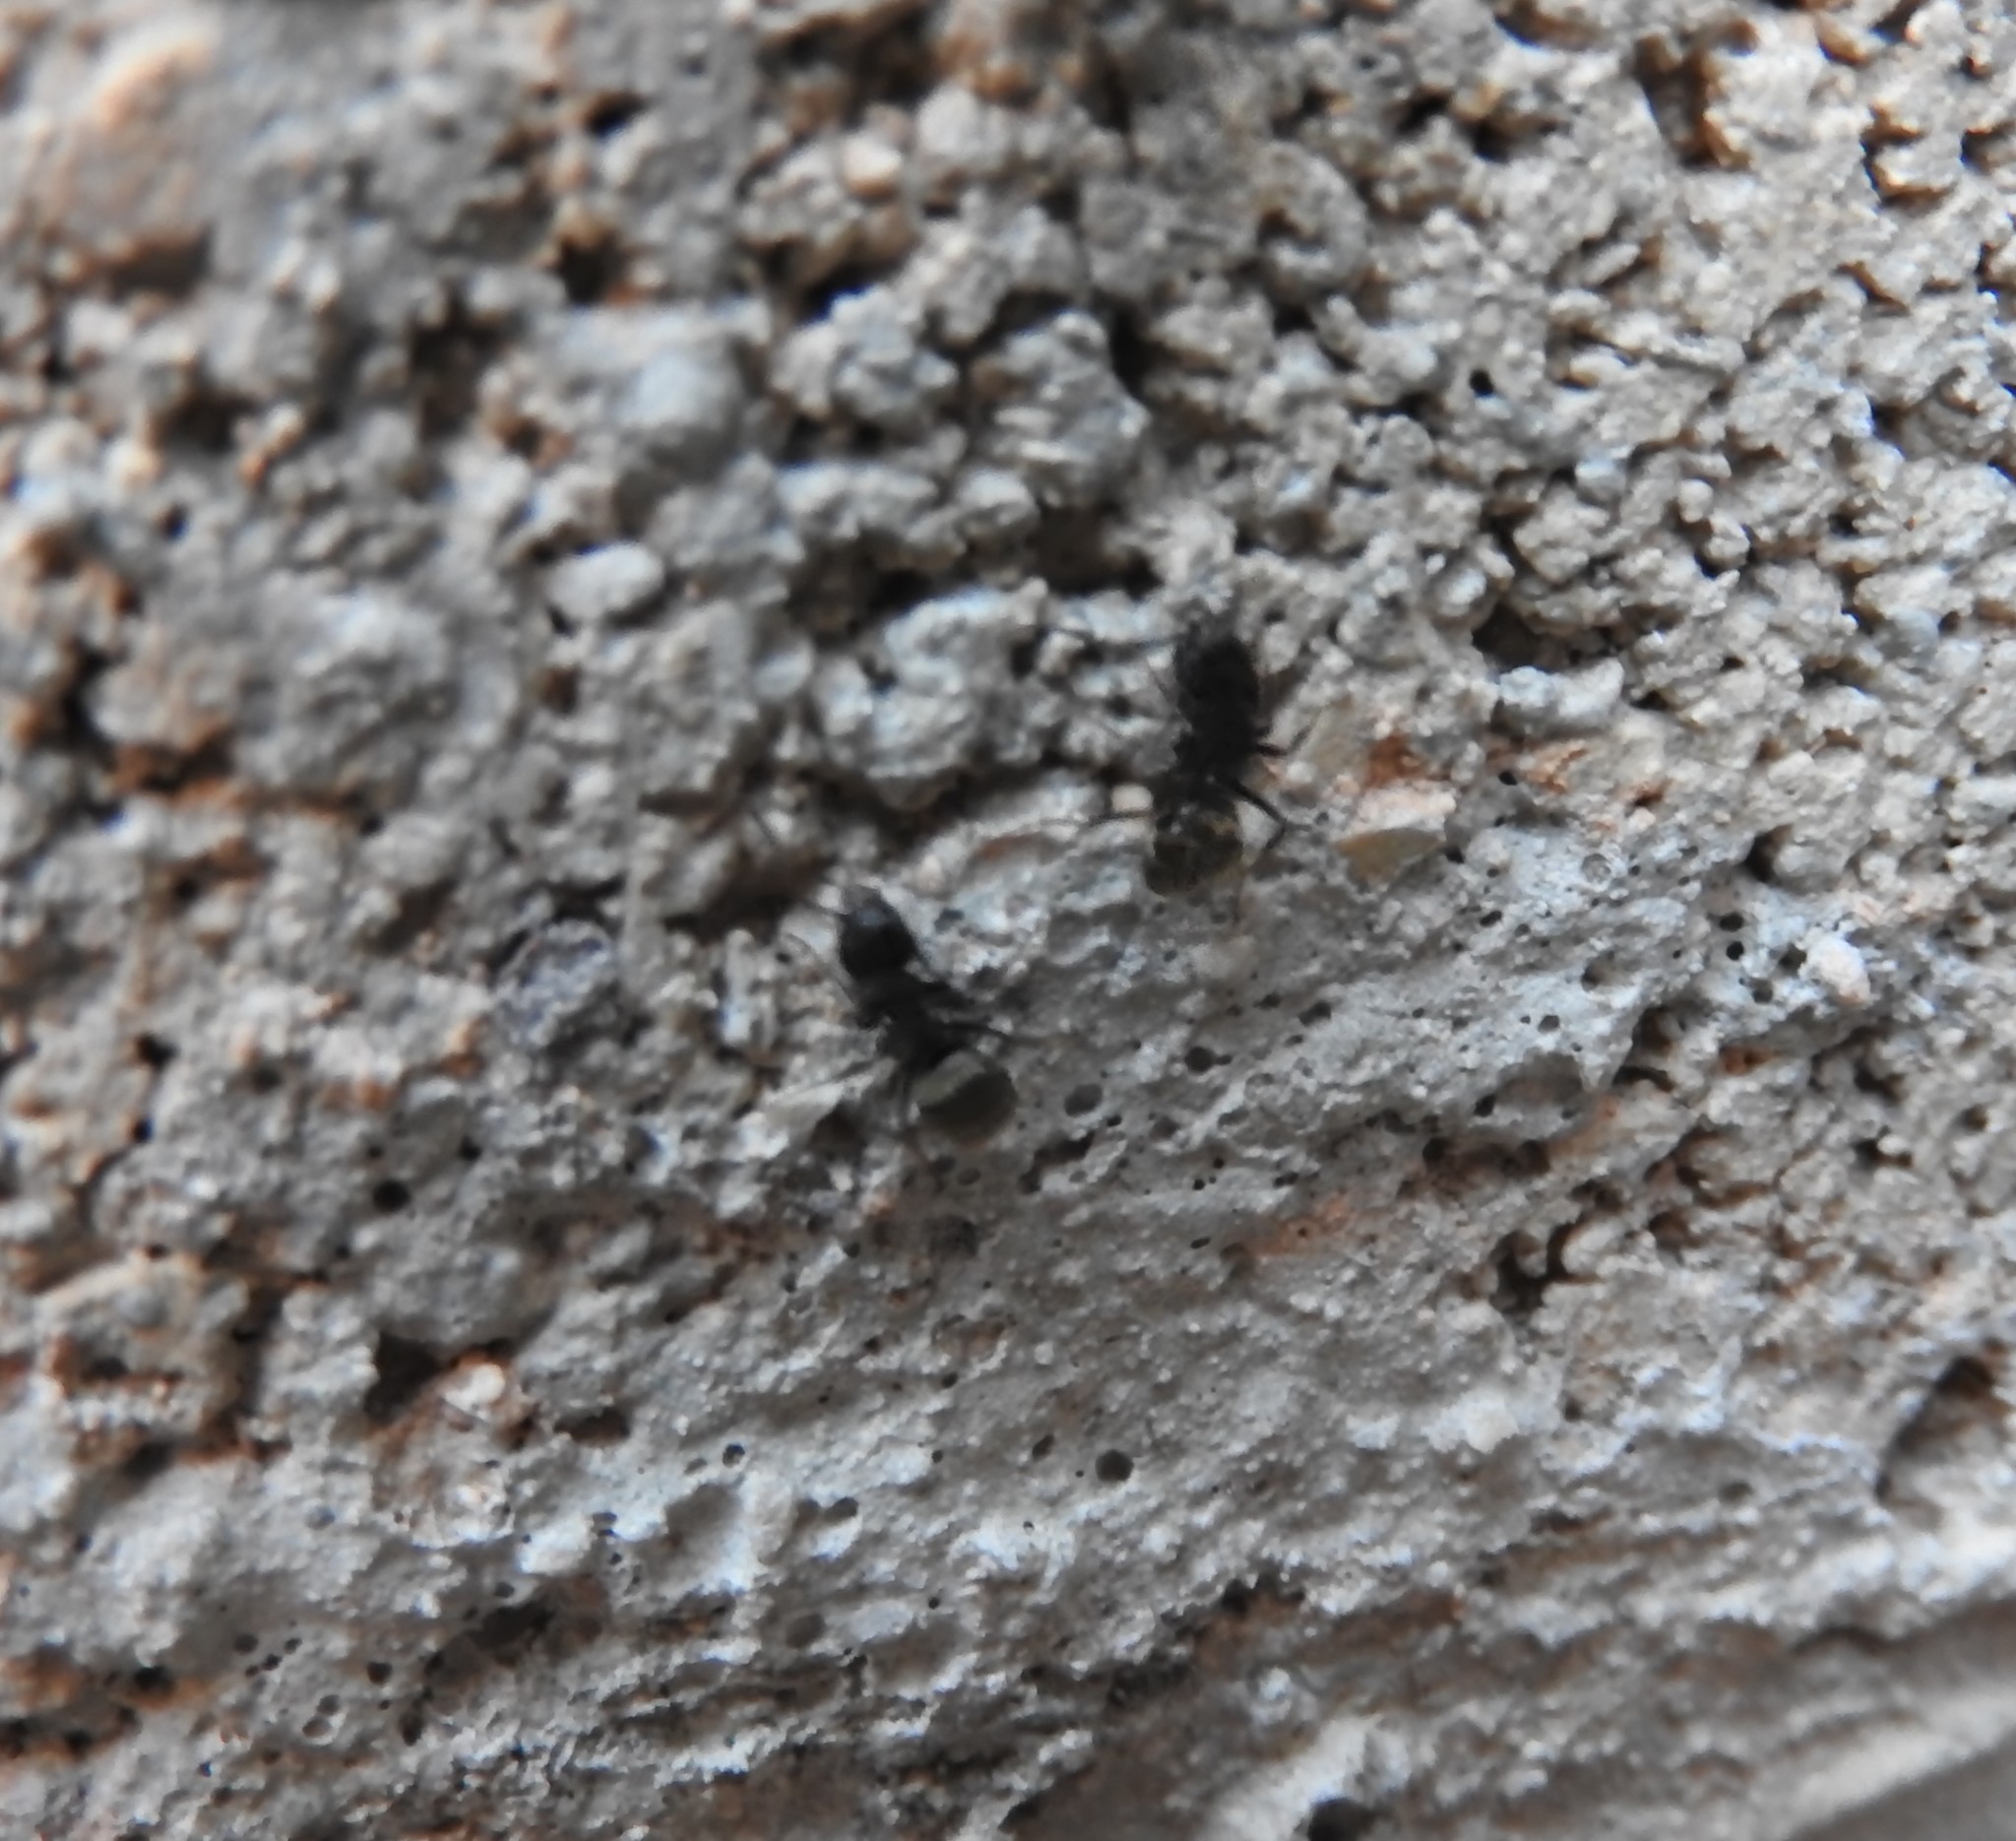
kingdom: Animalia
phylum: Arthropoda
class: Insecta
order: Hymenoptera
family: Formicidae
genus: Dolichoderus
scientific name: Dolichoderus bispinosus
